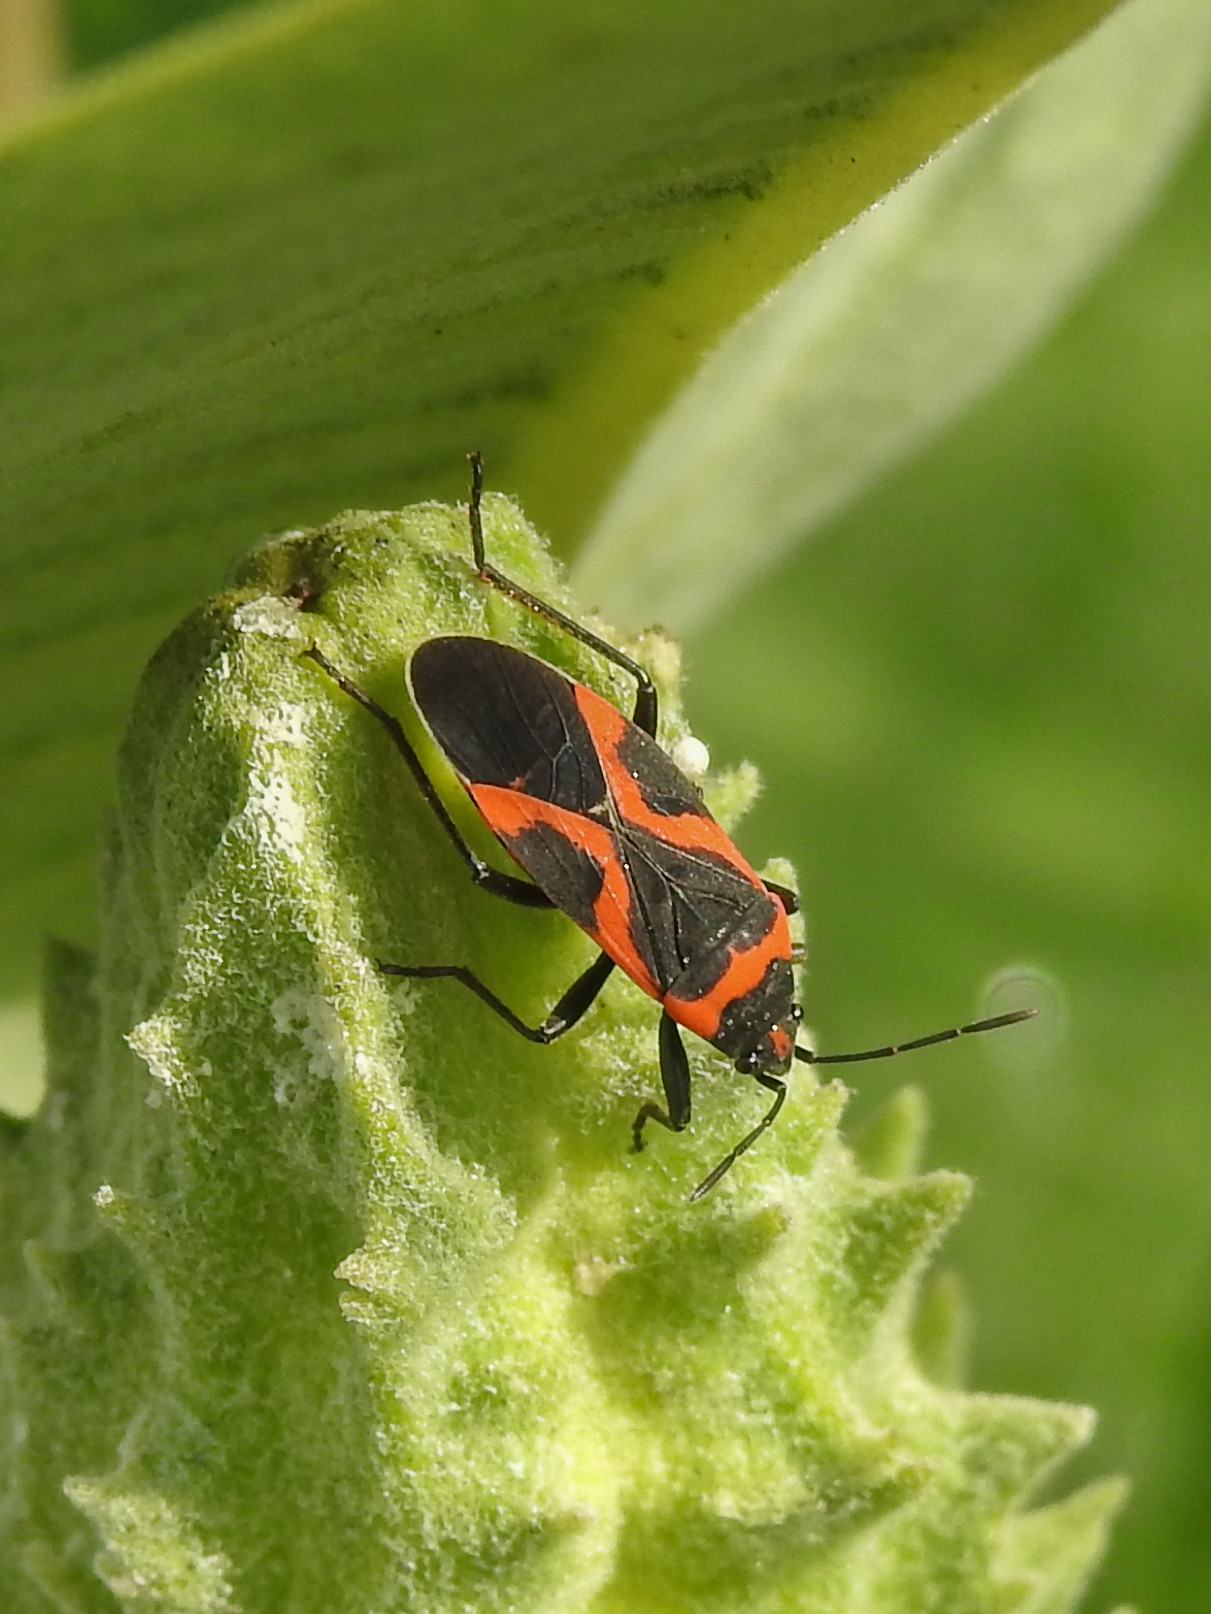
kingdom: Animalia
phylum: Arthropoda
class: Insecta
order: Hemiptera
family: Lygaeidae
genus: Lygaeus
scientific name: Lygaeus kalmii
